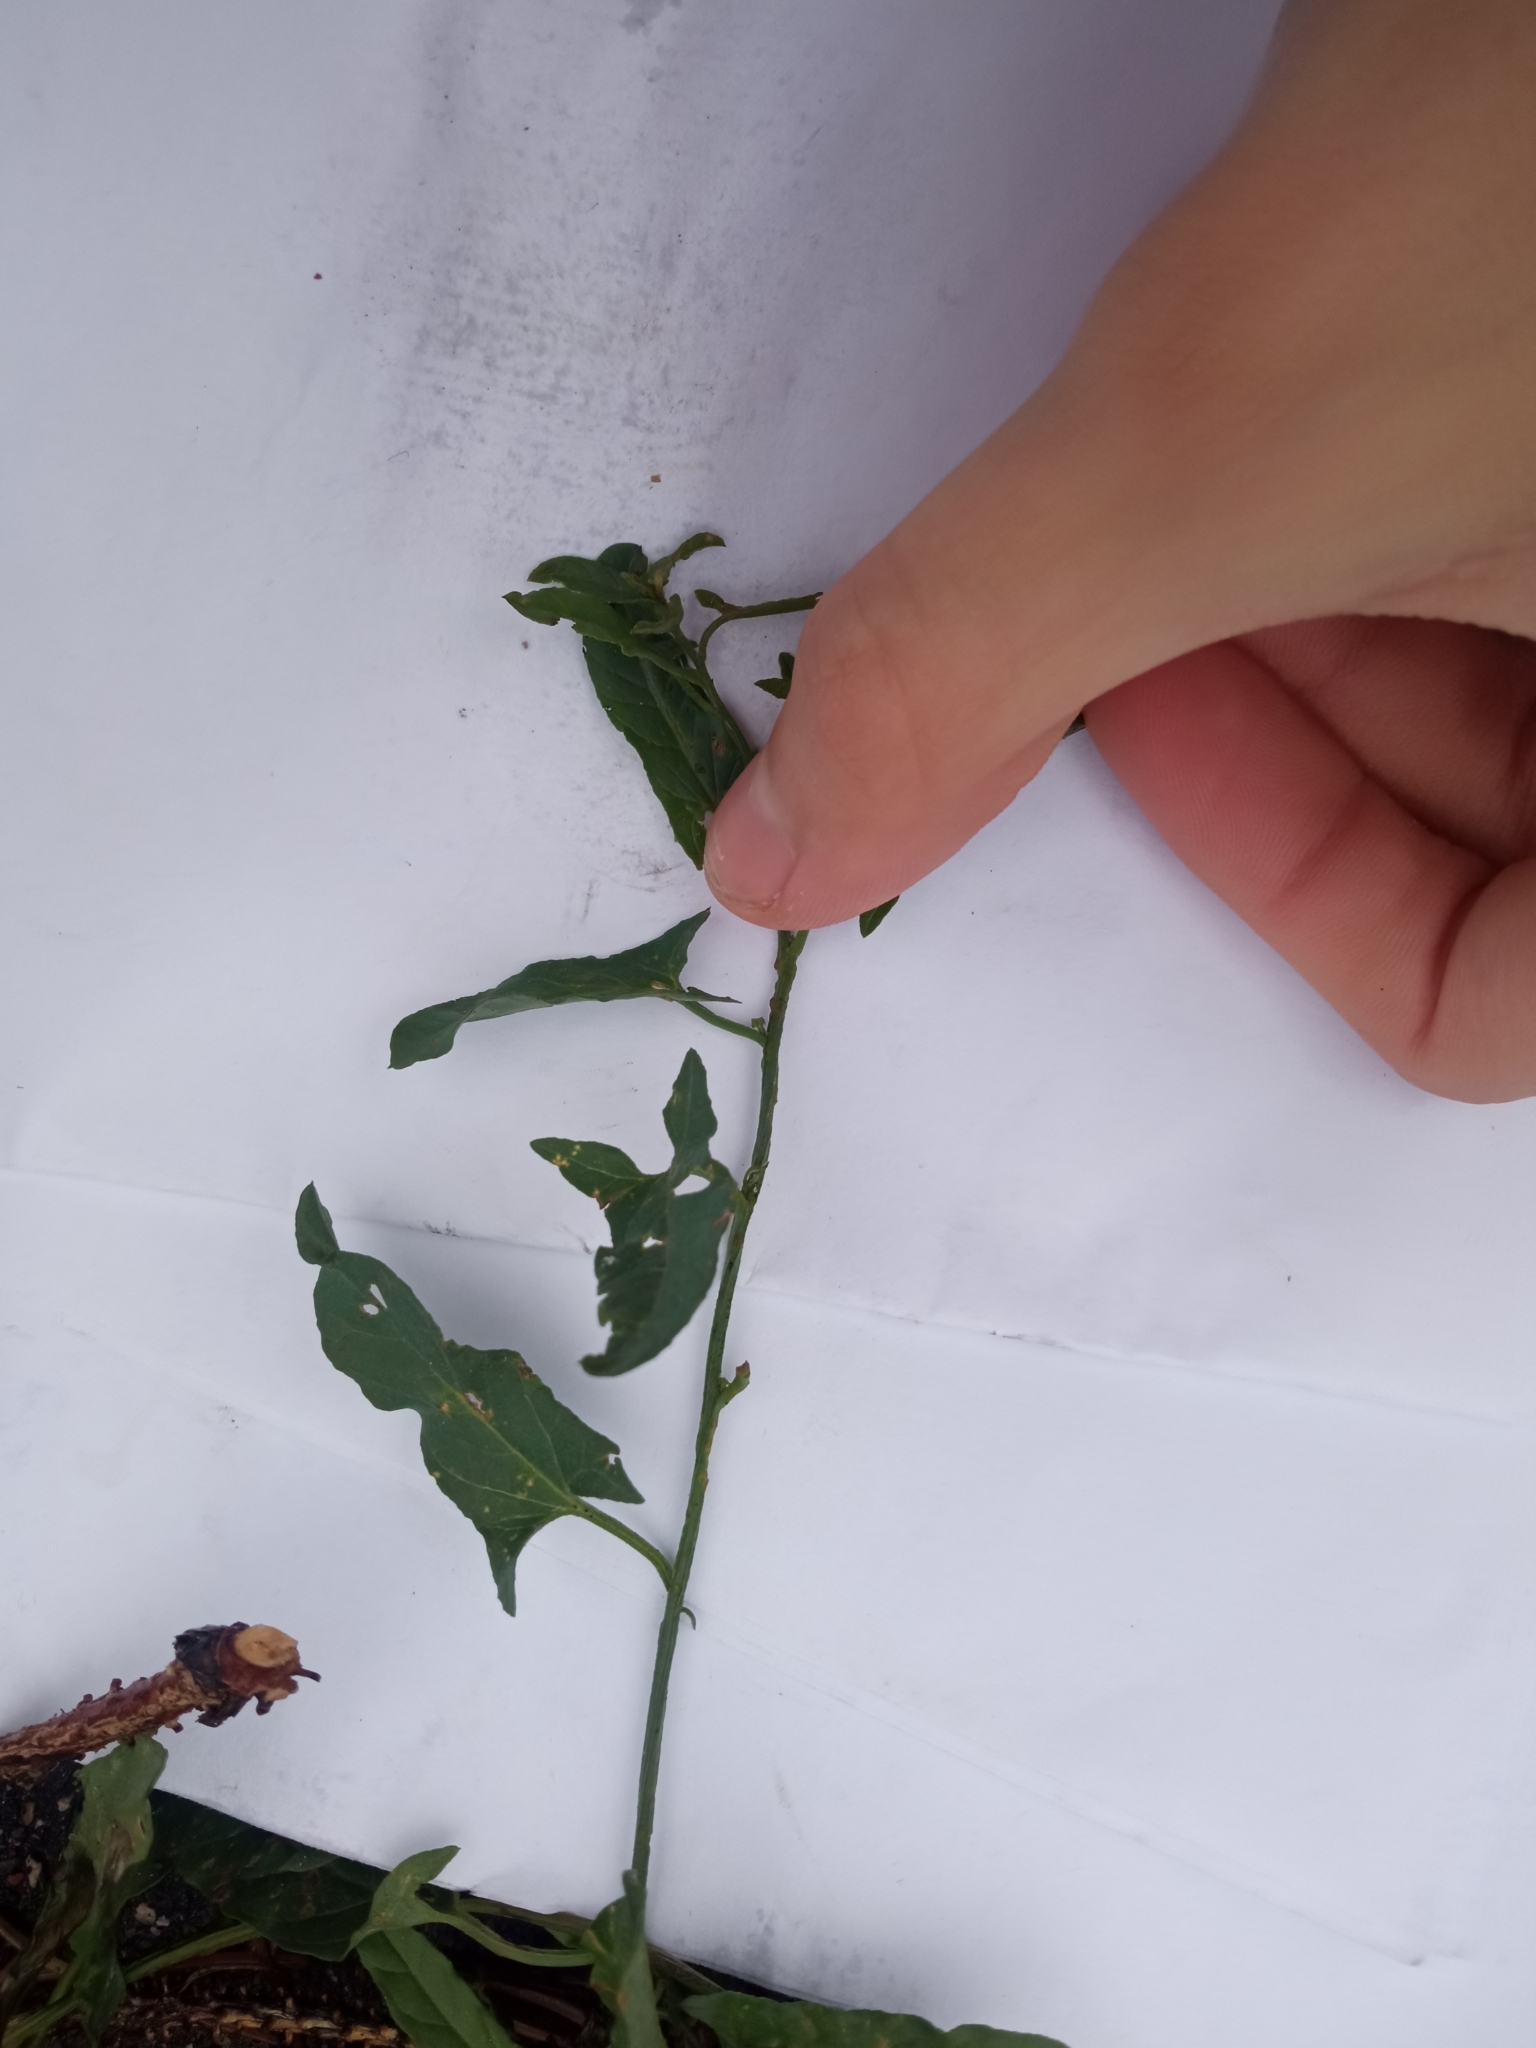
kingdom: Plantae
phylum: Tracheophyta
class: Magnoliopsida
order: Solanales
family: Convolvulaceae
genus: Convolvulus
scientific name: Convolvulus arvensis
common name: Field bindweed
